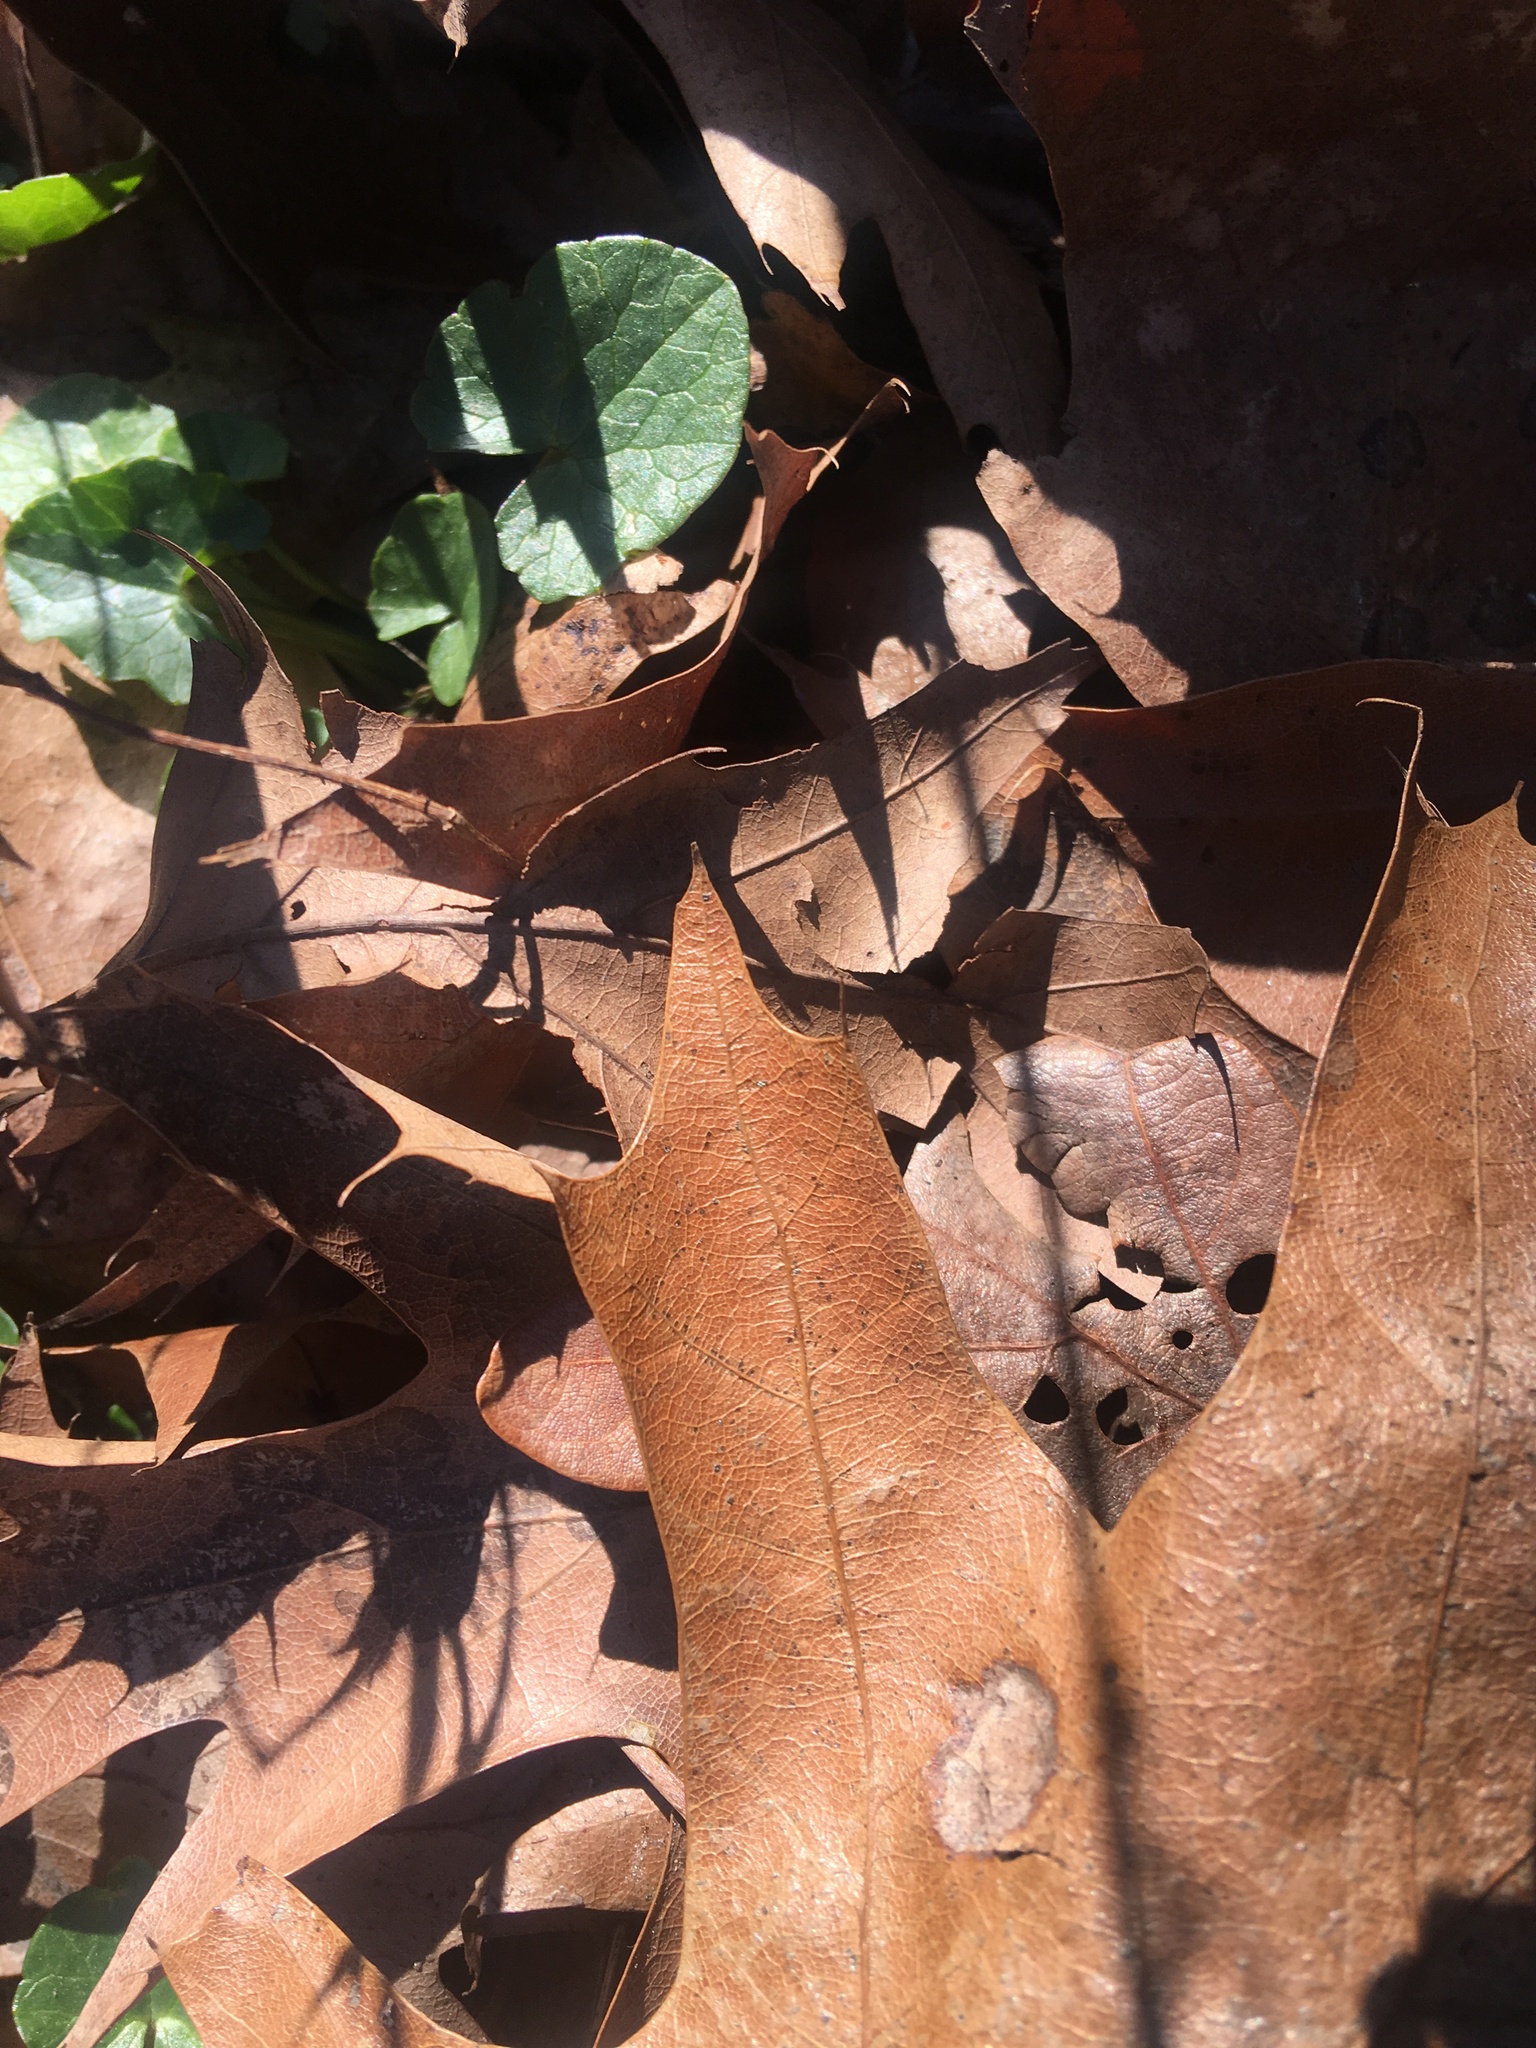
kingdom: Plantae
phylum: Tracheophyta
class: Magnoliopsida
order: Ranunculales
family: Ranunculaceae
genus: Ficaria
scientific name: Ficaria verna
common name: Lesser celandine
